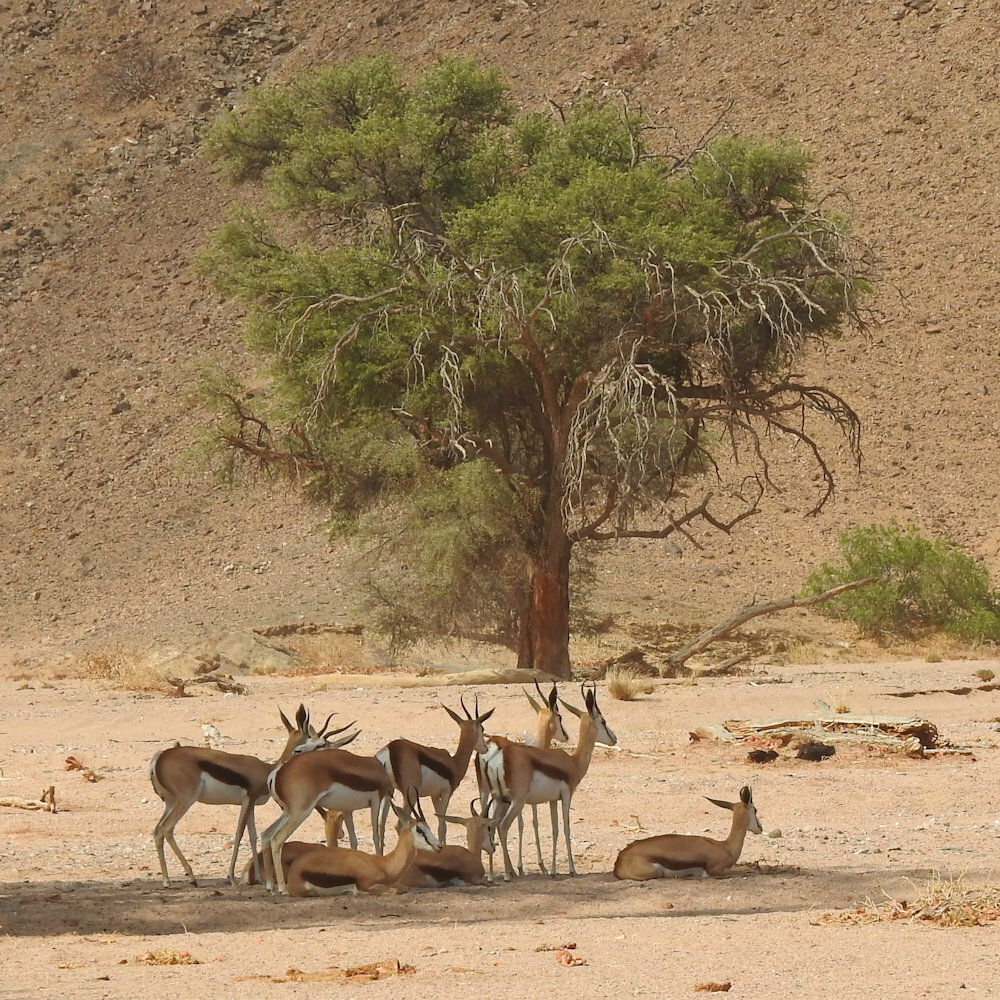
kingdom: Animalia
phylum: Chordata
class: Mammalia
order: Artiodactyla
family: Bovidae
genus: Antidorcas
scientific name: Antidorcas marsupialis
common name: Springbok
